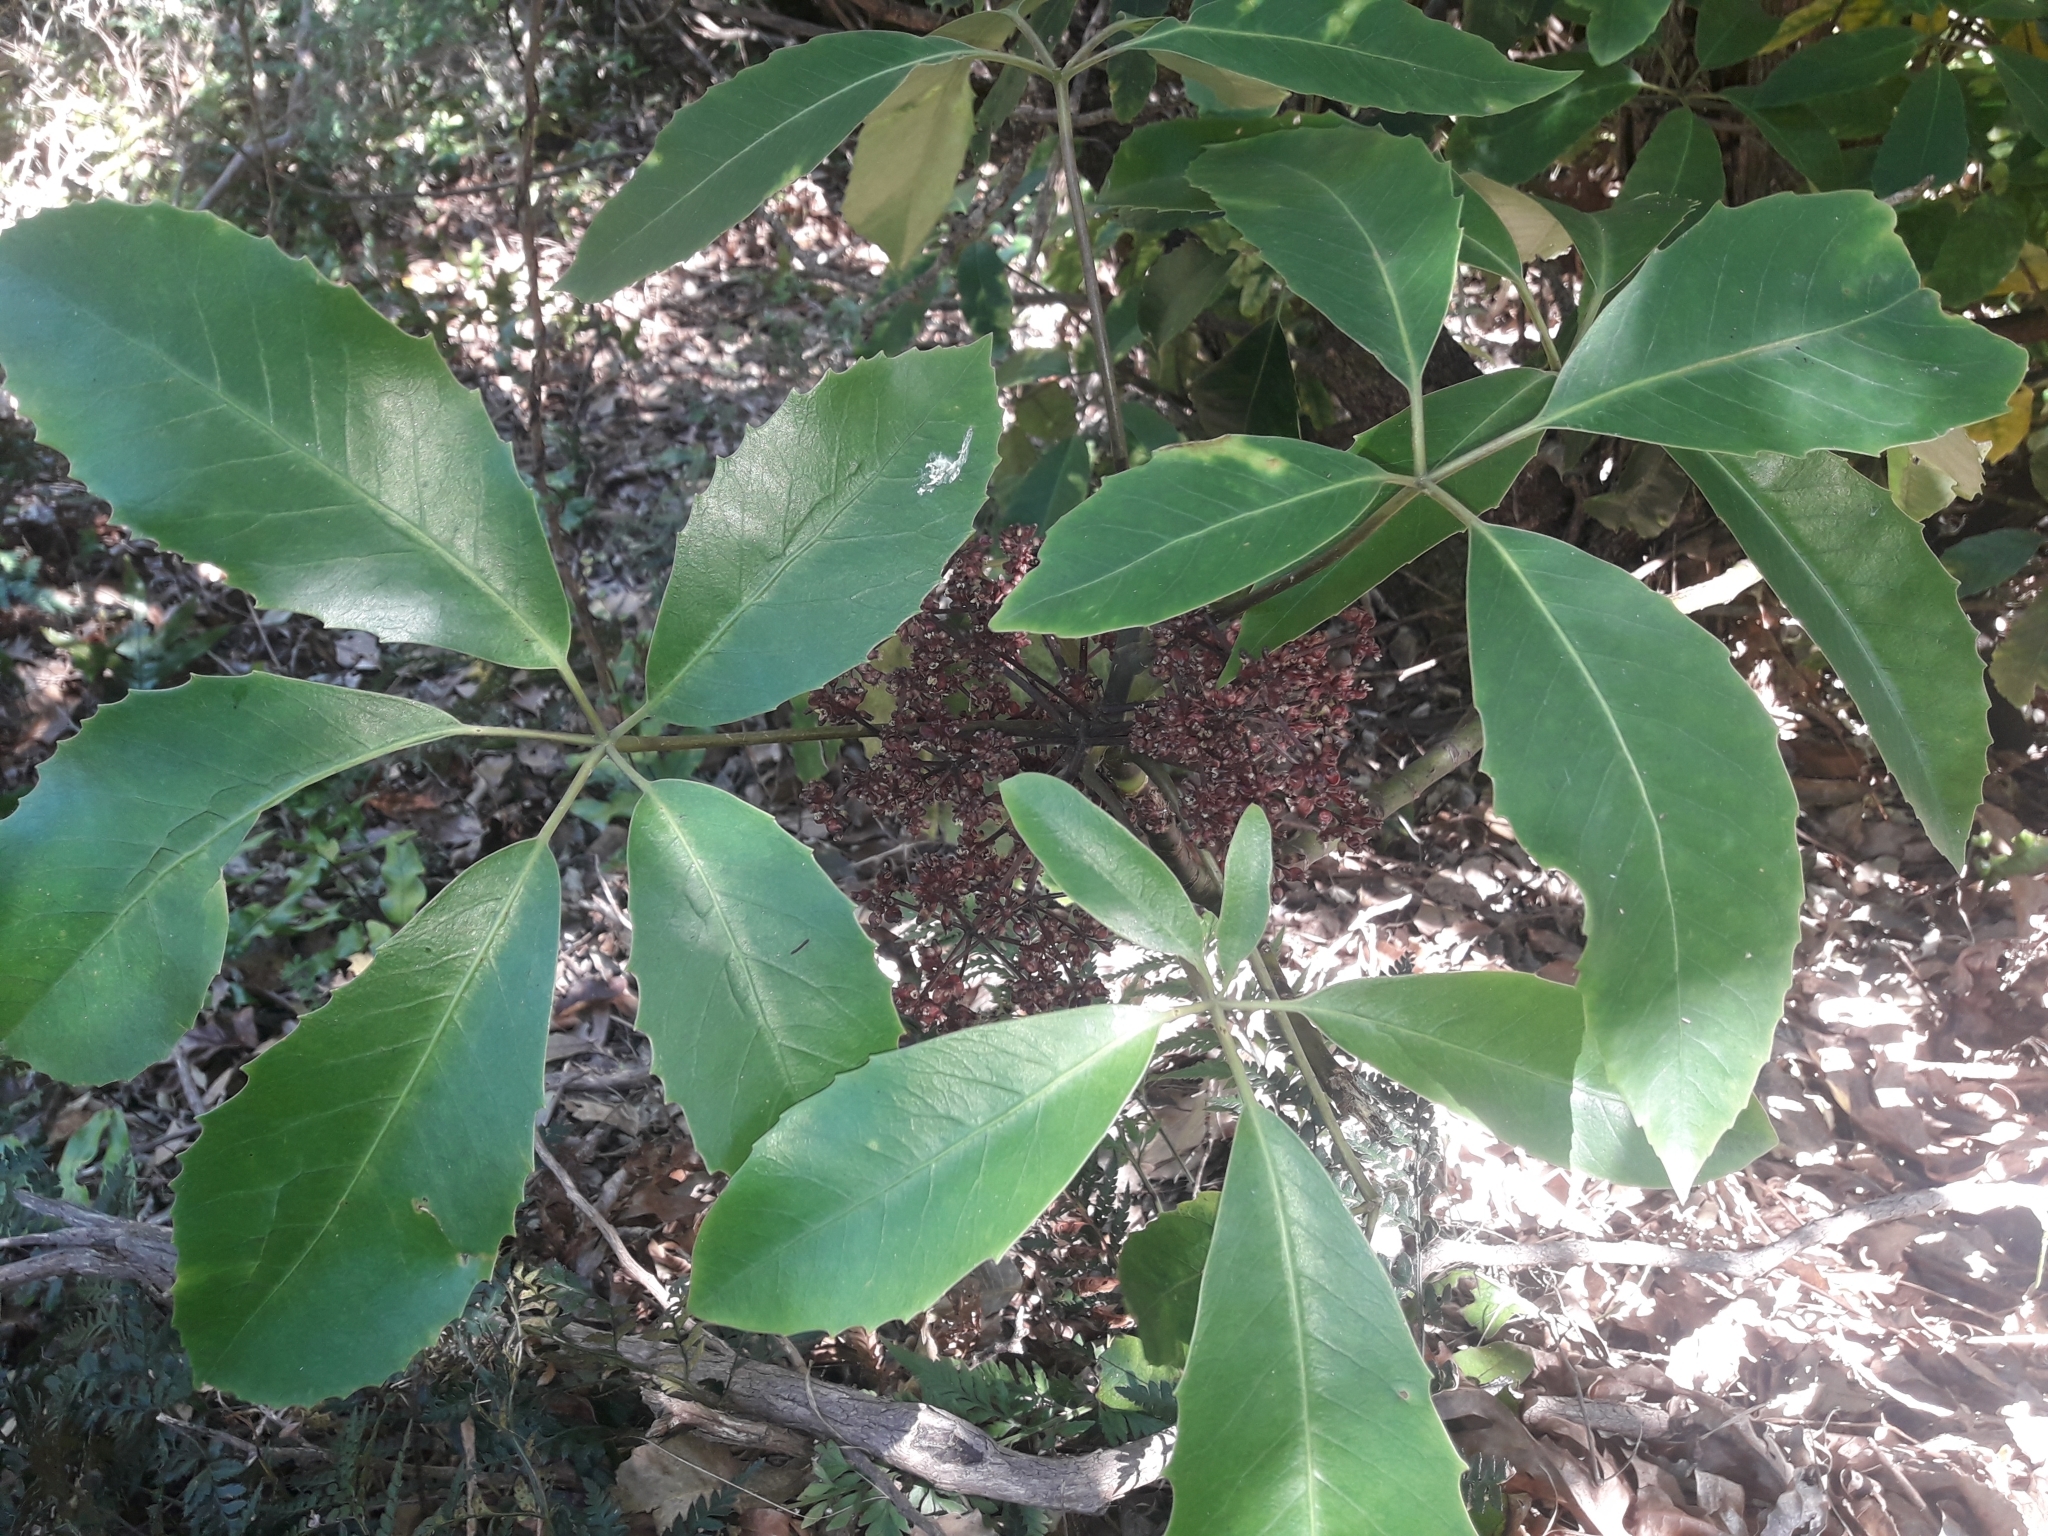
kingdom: Plantae
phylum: Tracheophyta
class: Magnoliopsida
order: Apiales
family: Araliaceae
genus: Neopanax
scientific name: Neopanax arboreus
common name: Five-fingers
